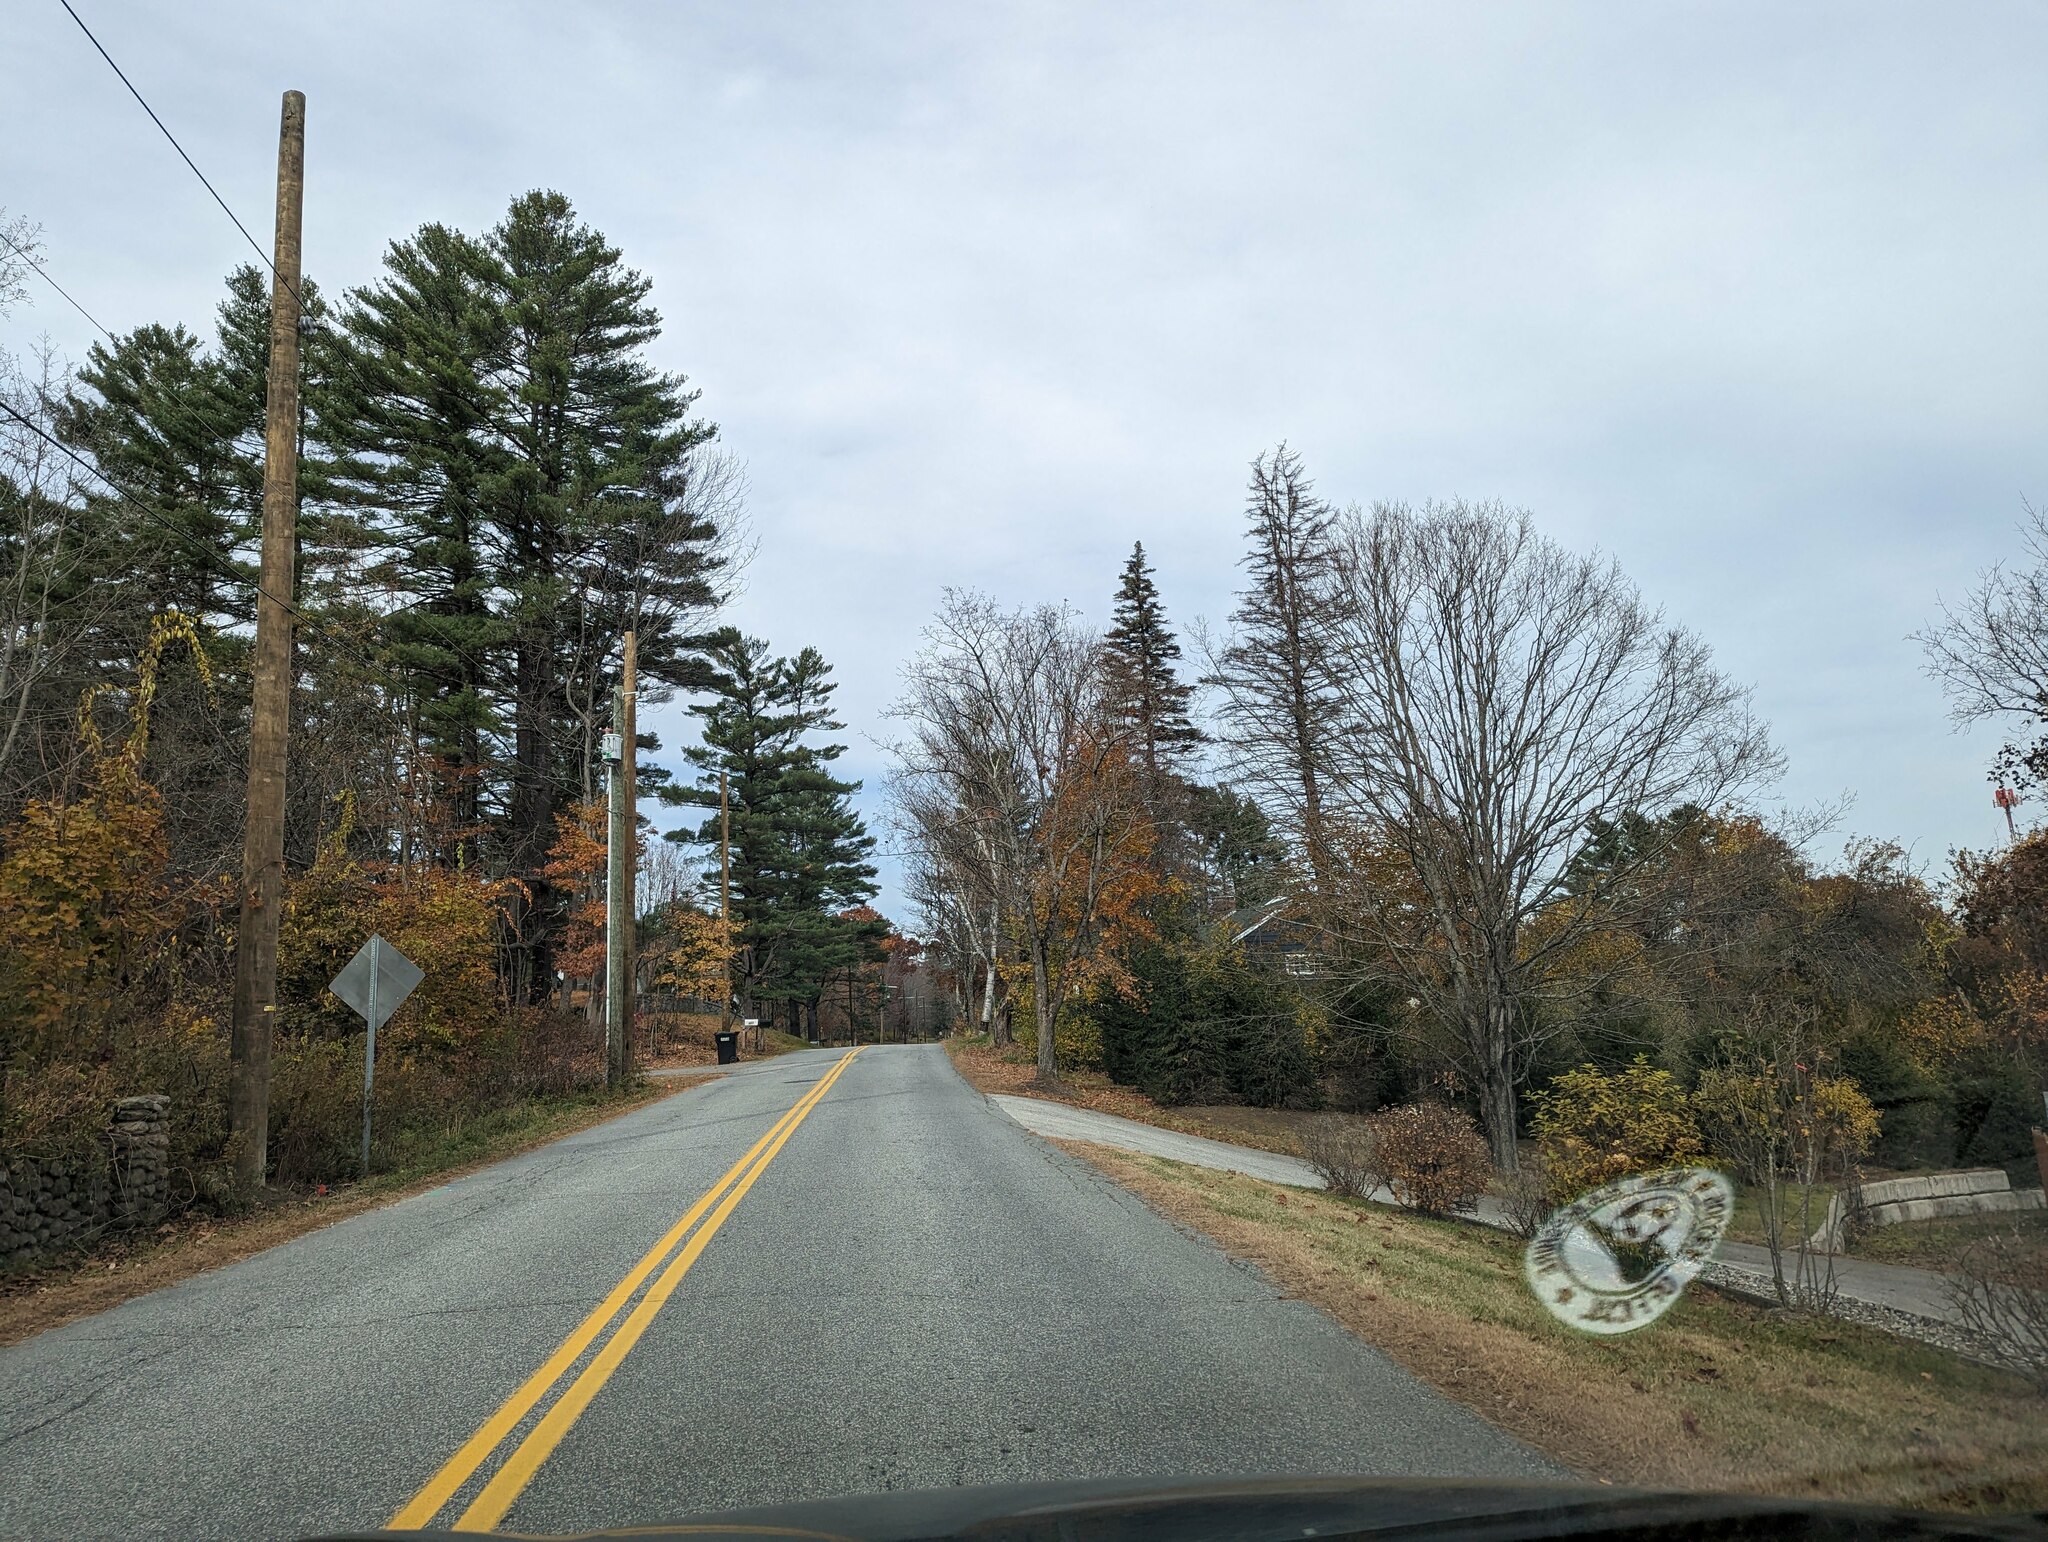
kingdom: Plantae
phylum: Tracheophyta
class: Pinopsida
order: Pinales
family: Pinaceae
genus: Pinus
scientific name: Pinus strobus
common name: Weymouth pine
